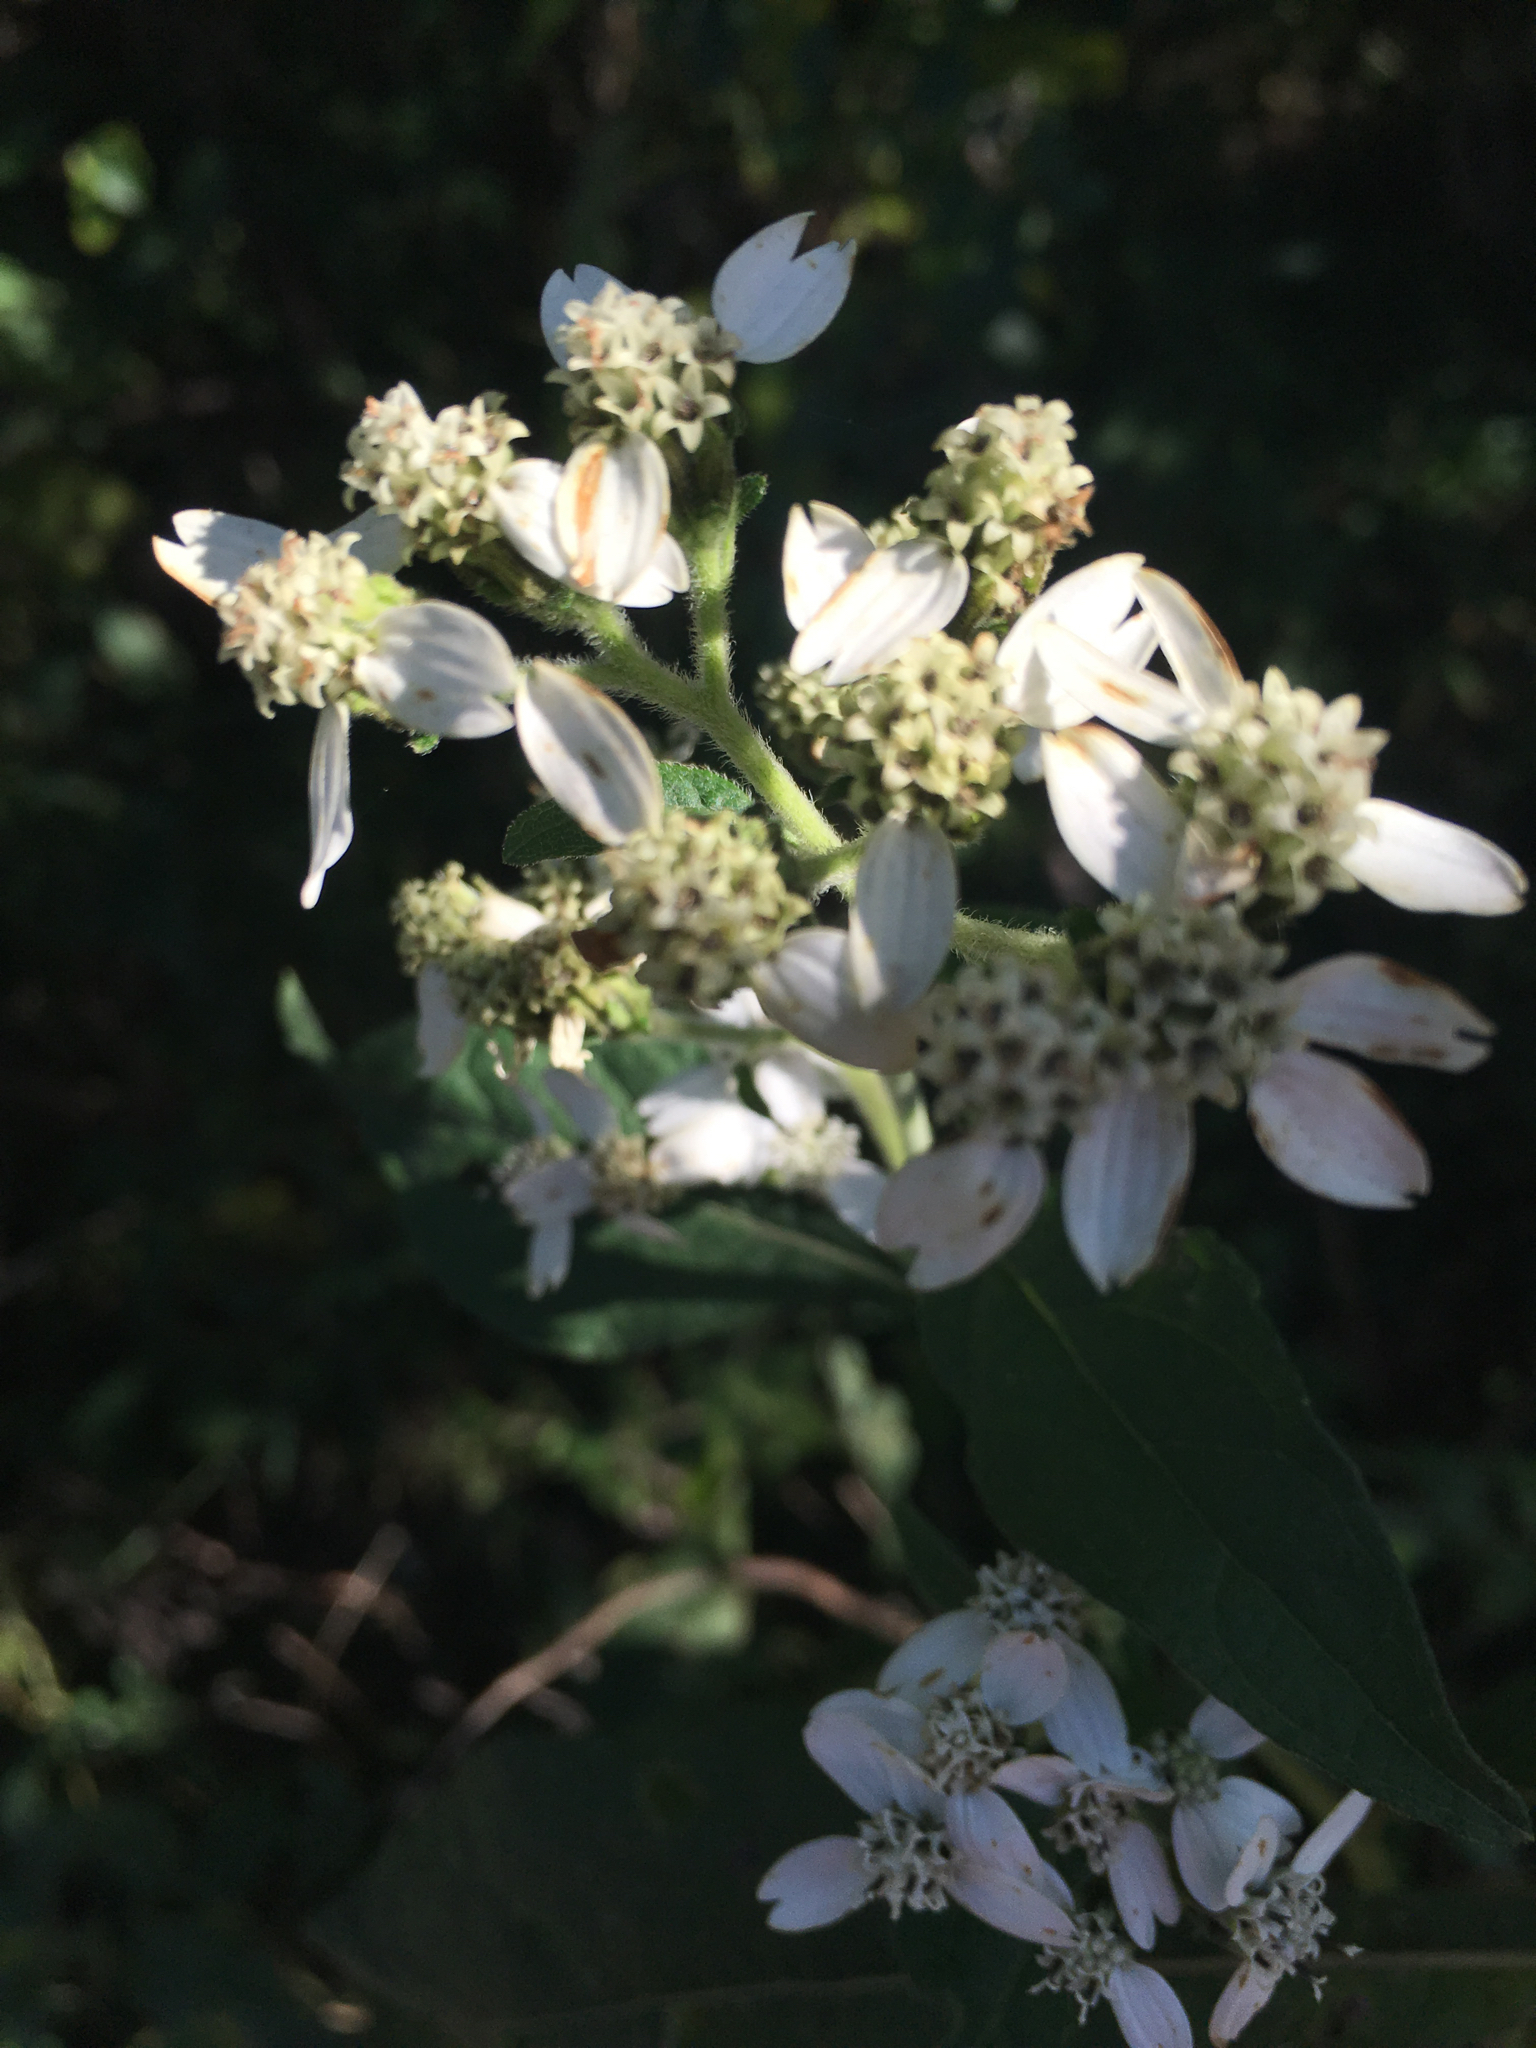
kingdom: Plantae
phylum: Tracheophyta
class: Magnoliopsida
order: Asterales
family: Asteraceae
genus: Verbesina
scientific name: Verbesina virginica
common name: Frostweed
